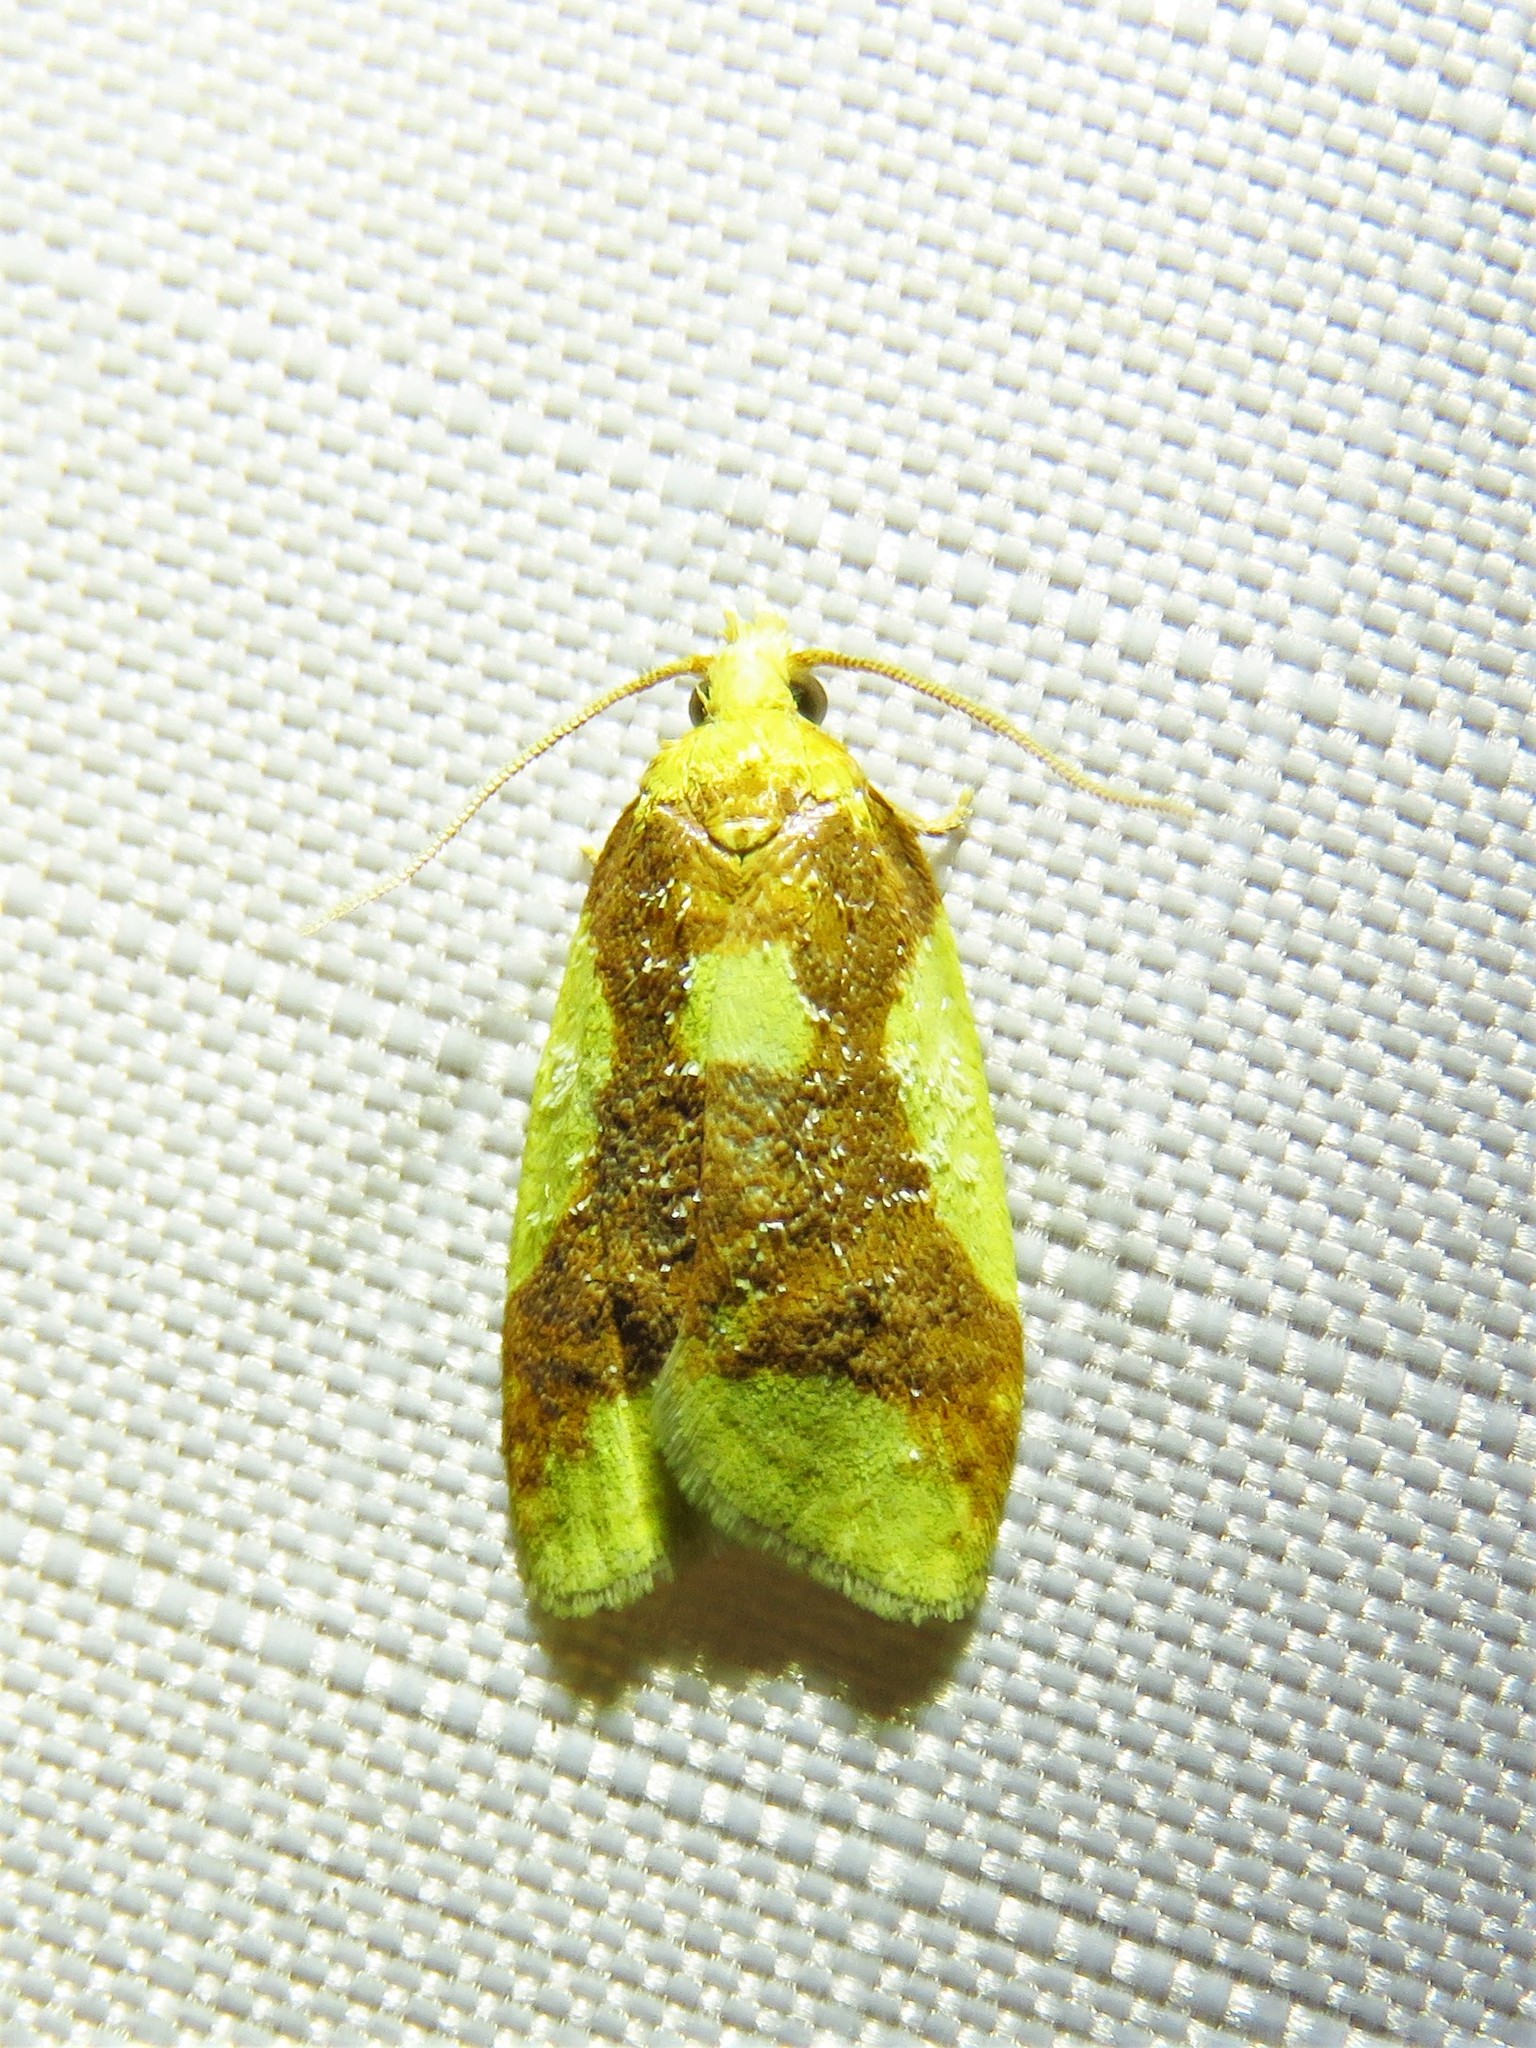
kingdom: Animalia
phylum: Arthropoda
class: Insecta
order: Lepidoptera
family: Tortricidae
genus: Sparganothis
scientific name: Sparganothis pulcherrimana
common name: Beautiful sparganothis
